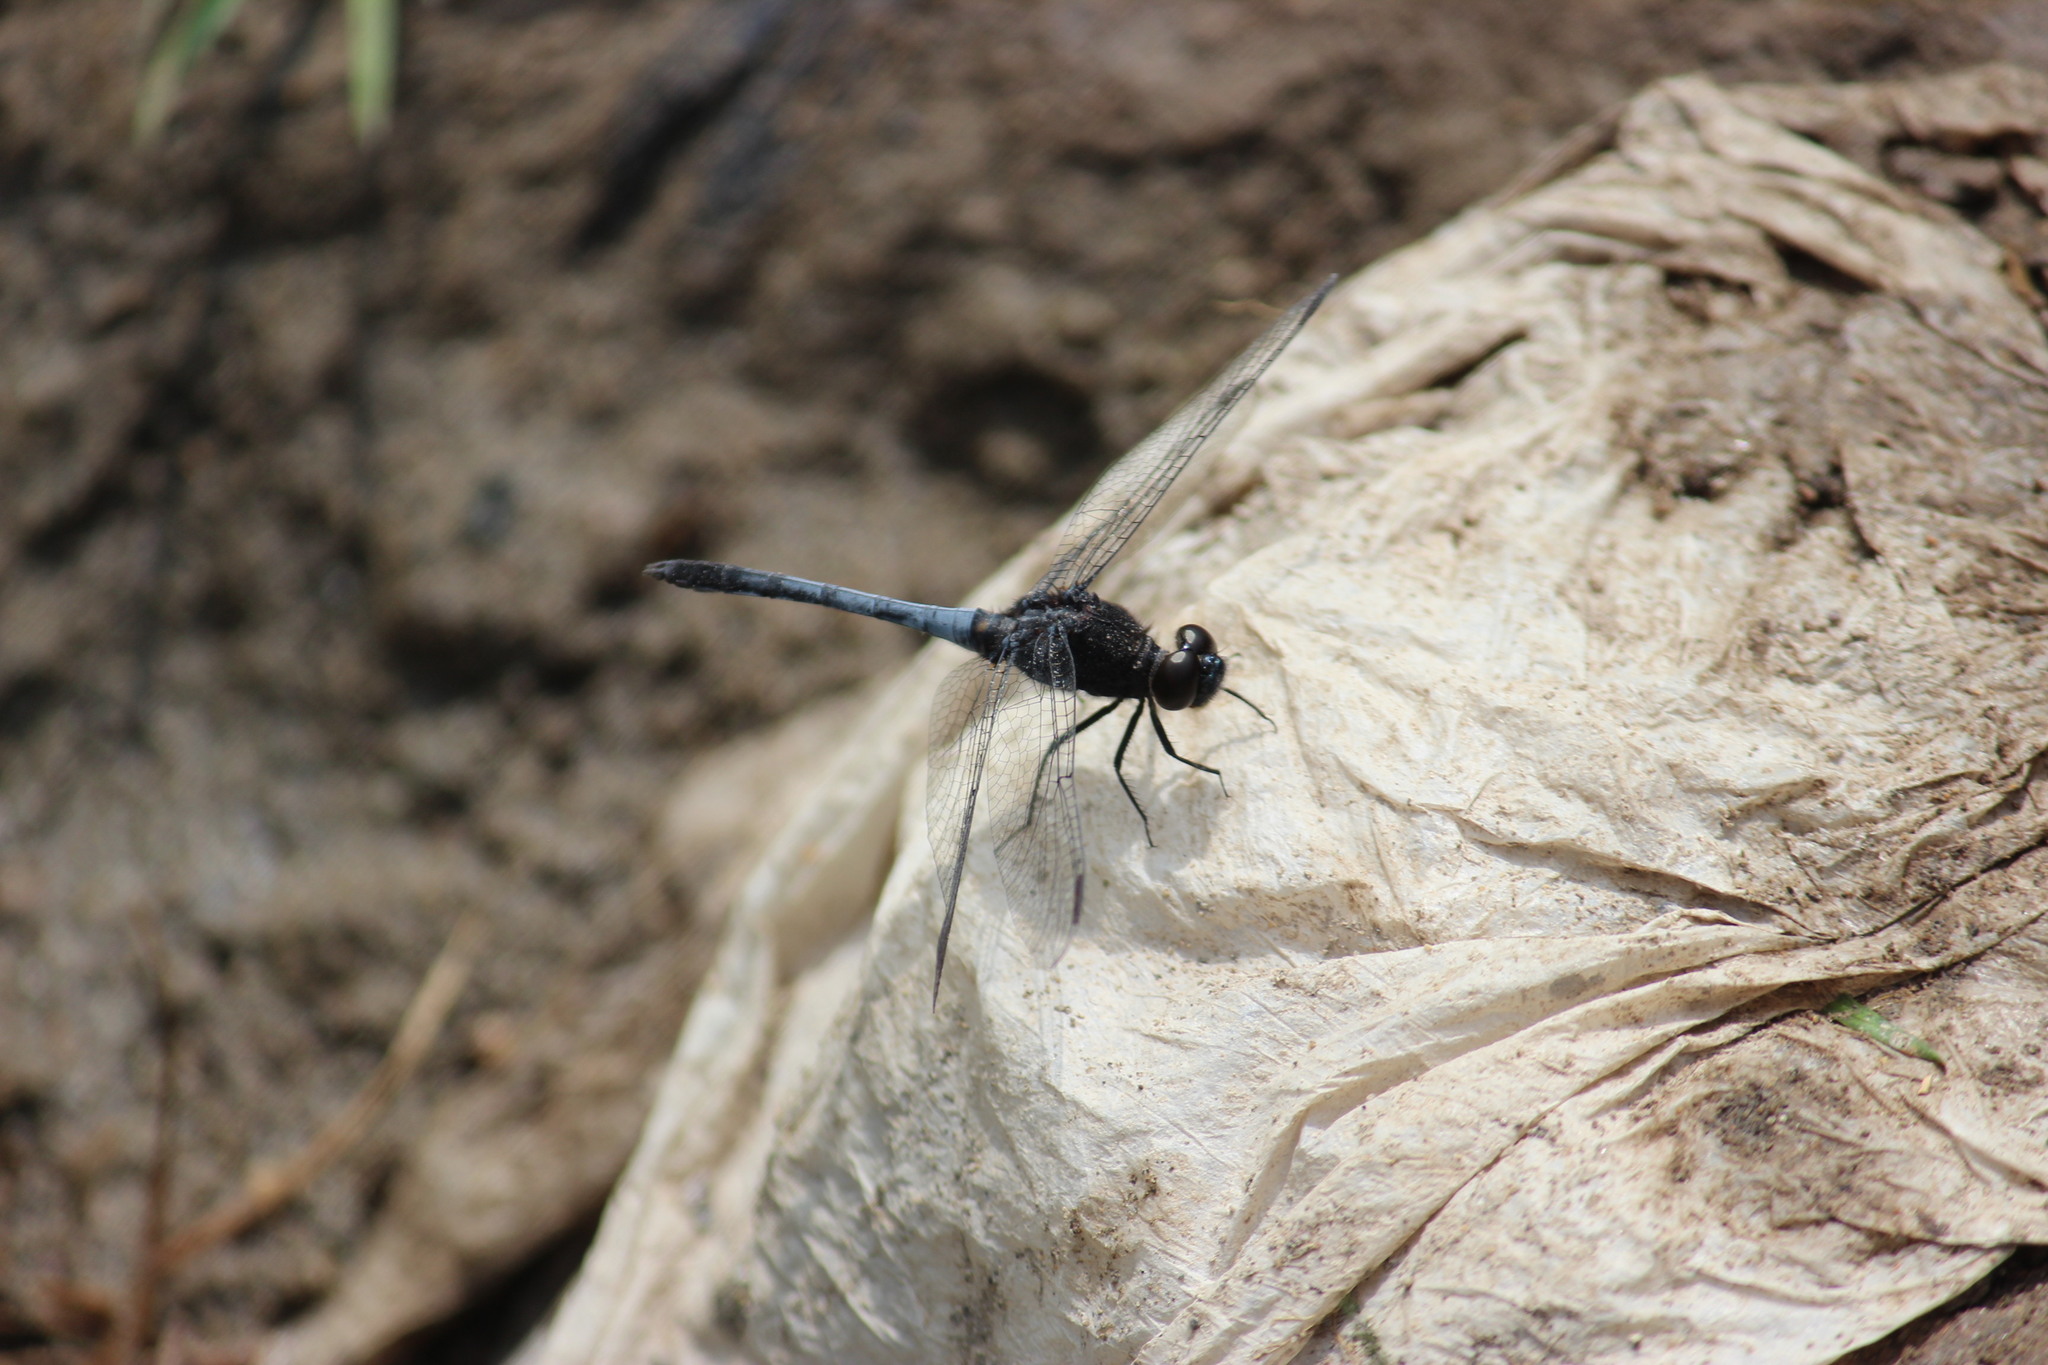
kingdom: Animalia
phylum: Arthropoda
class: Insecta
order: Odonata
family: Libellulidae
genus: Erythrodiplax
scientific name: Erythrodiplax cleopatra
